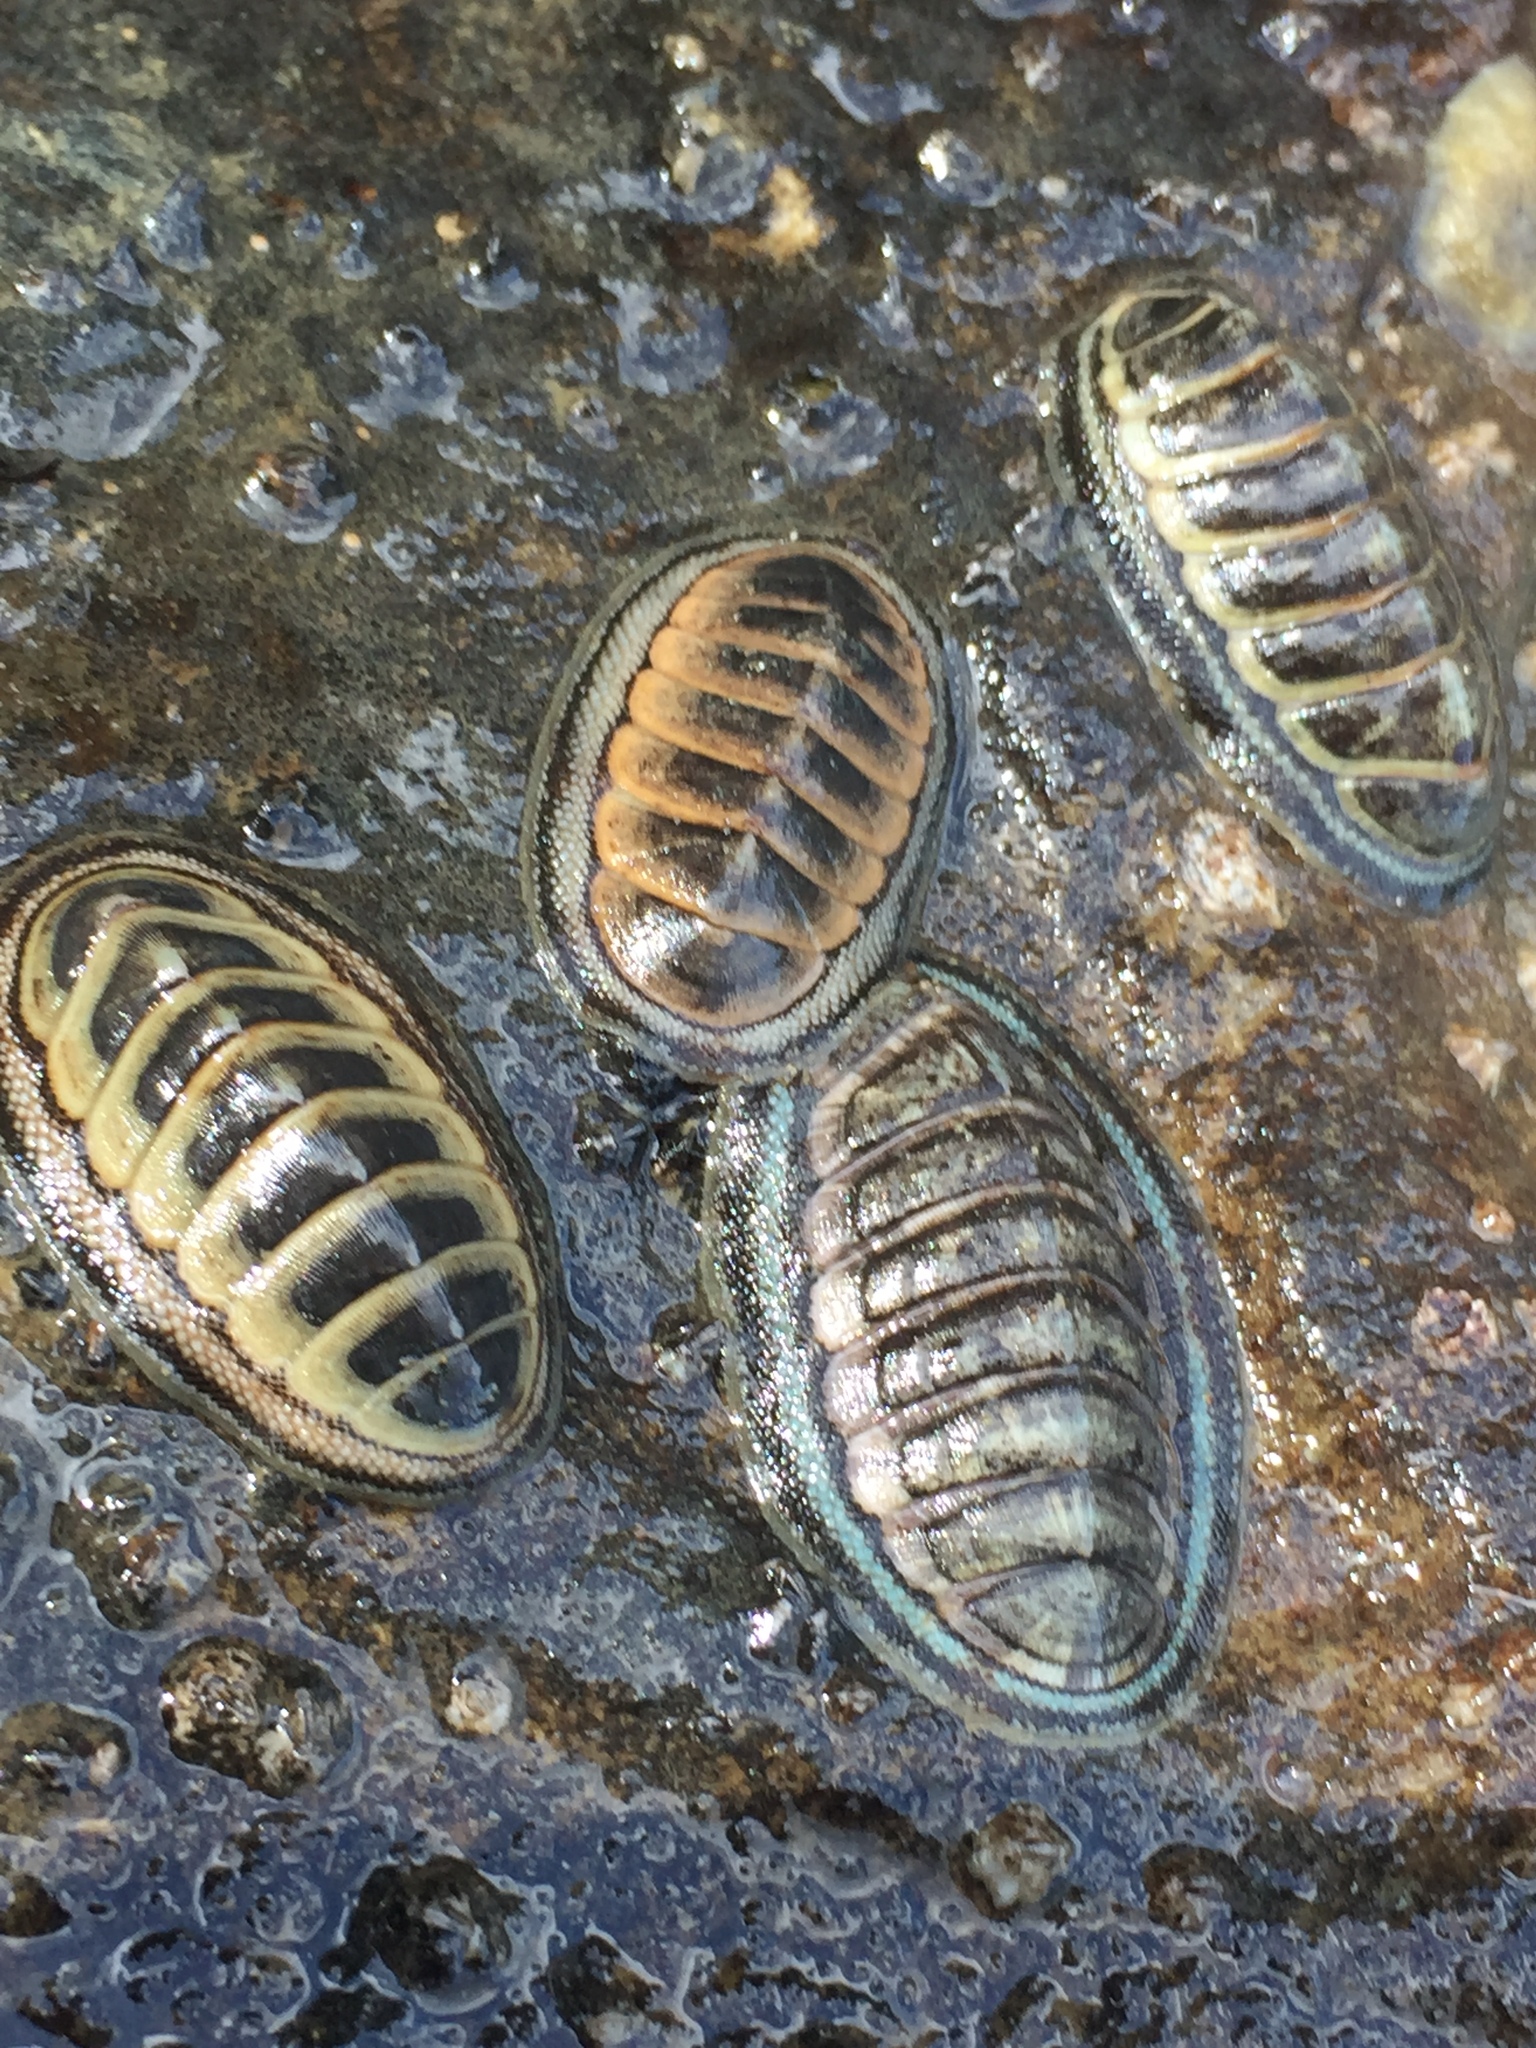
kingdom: Animalia
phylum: Mollusca
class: Polyplacophora
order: Chitonida
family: Chitonidae
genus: Chiton
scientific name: Chiton glaucus
